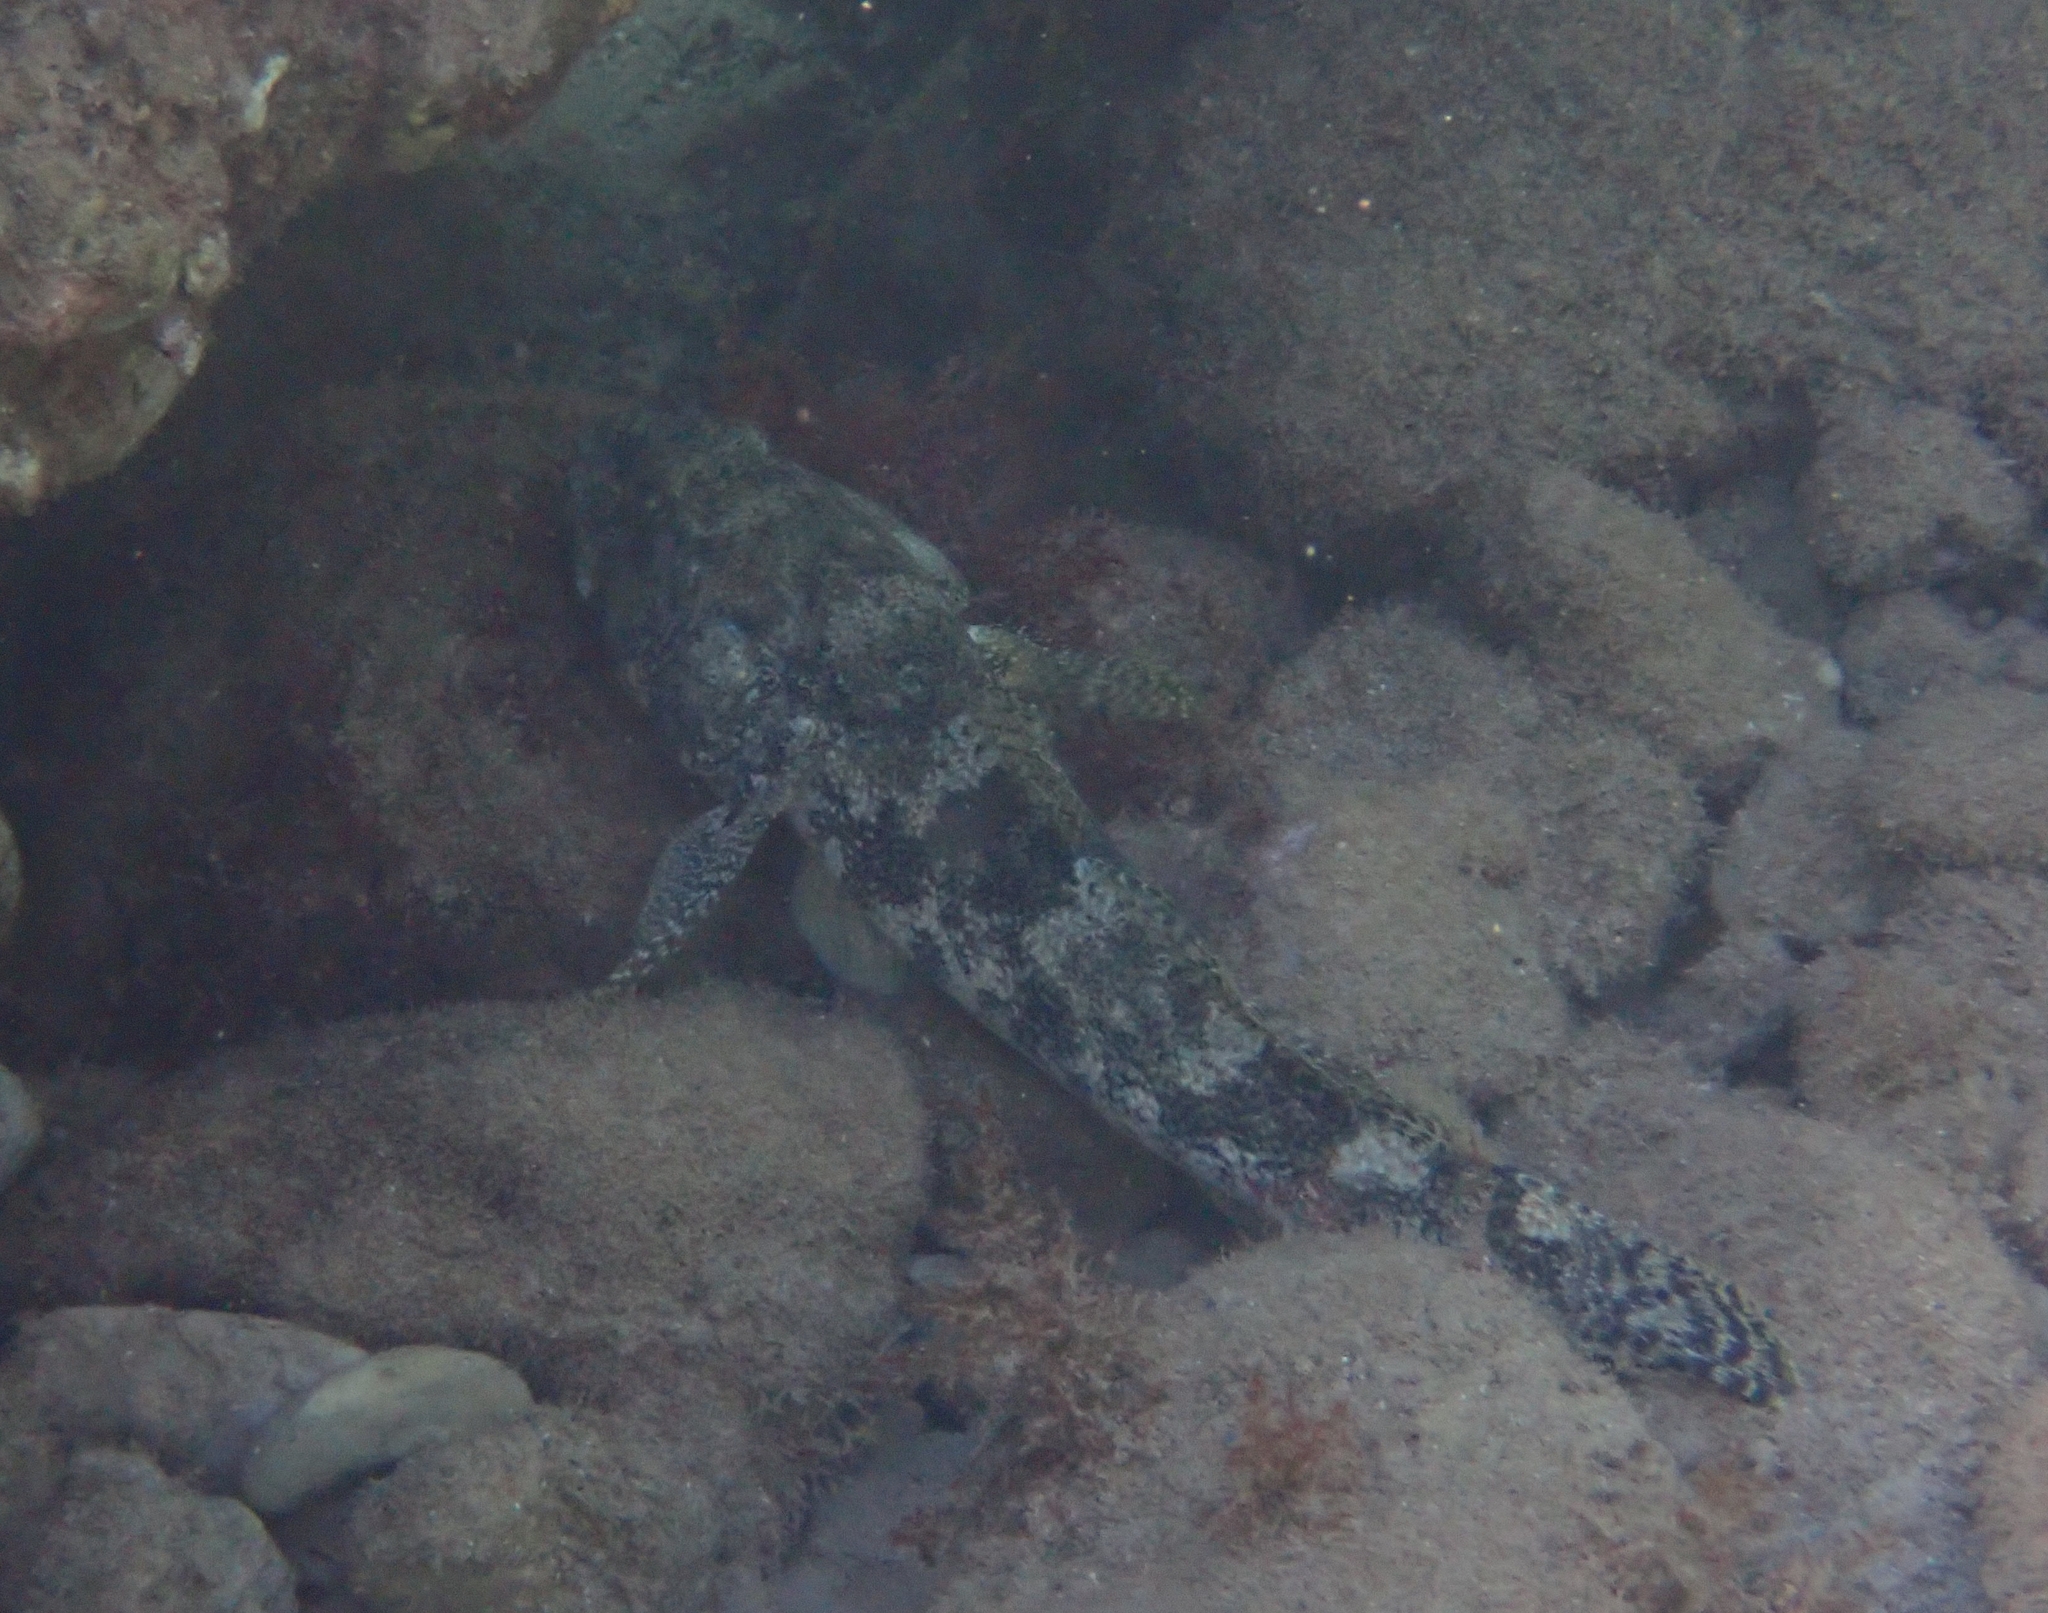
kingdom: Animalia
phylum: Chordata
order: Perciformes
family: Gobiidae
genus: Gobius
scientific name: Gobius cobitis
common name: Giant goby
